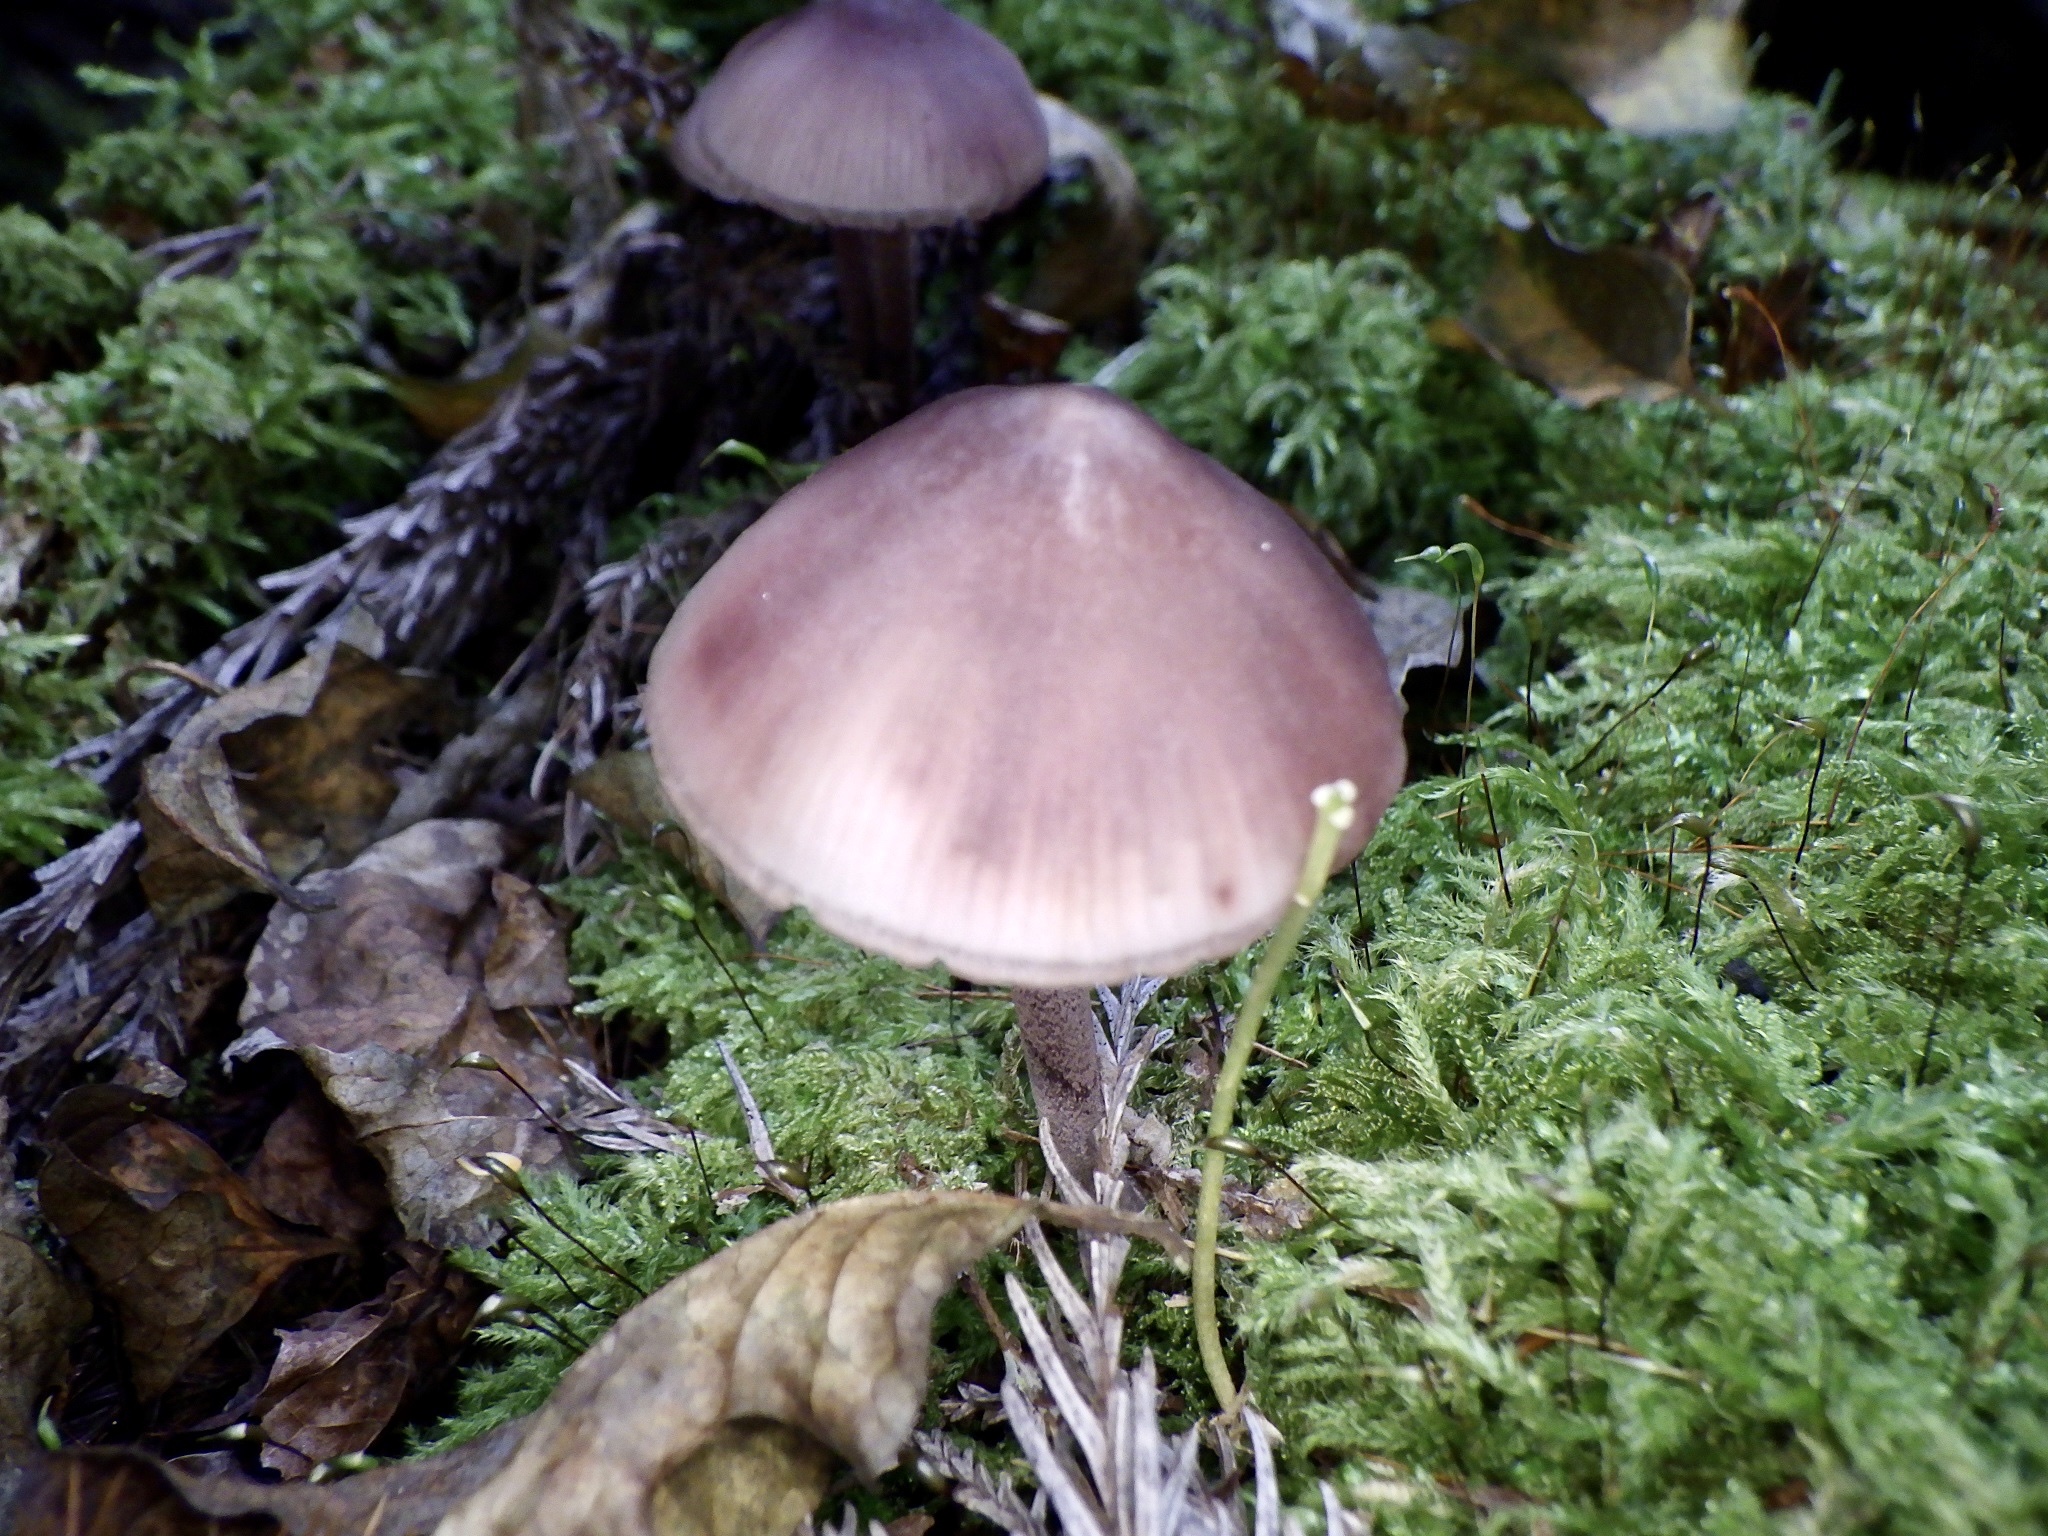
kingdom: Fungi
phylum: Basidiomycota
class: Agaricomycetes
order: Agaricales
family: Mycenaceae
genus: Mycena
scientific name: Mycena haematopus
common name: Burgundydrop bonnet
